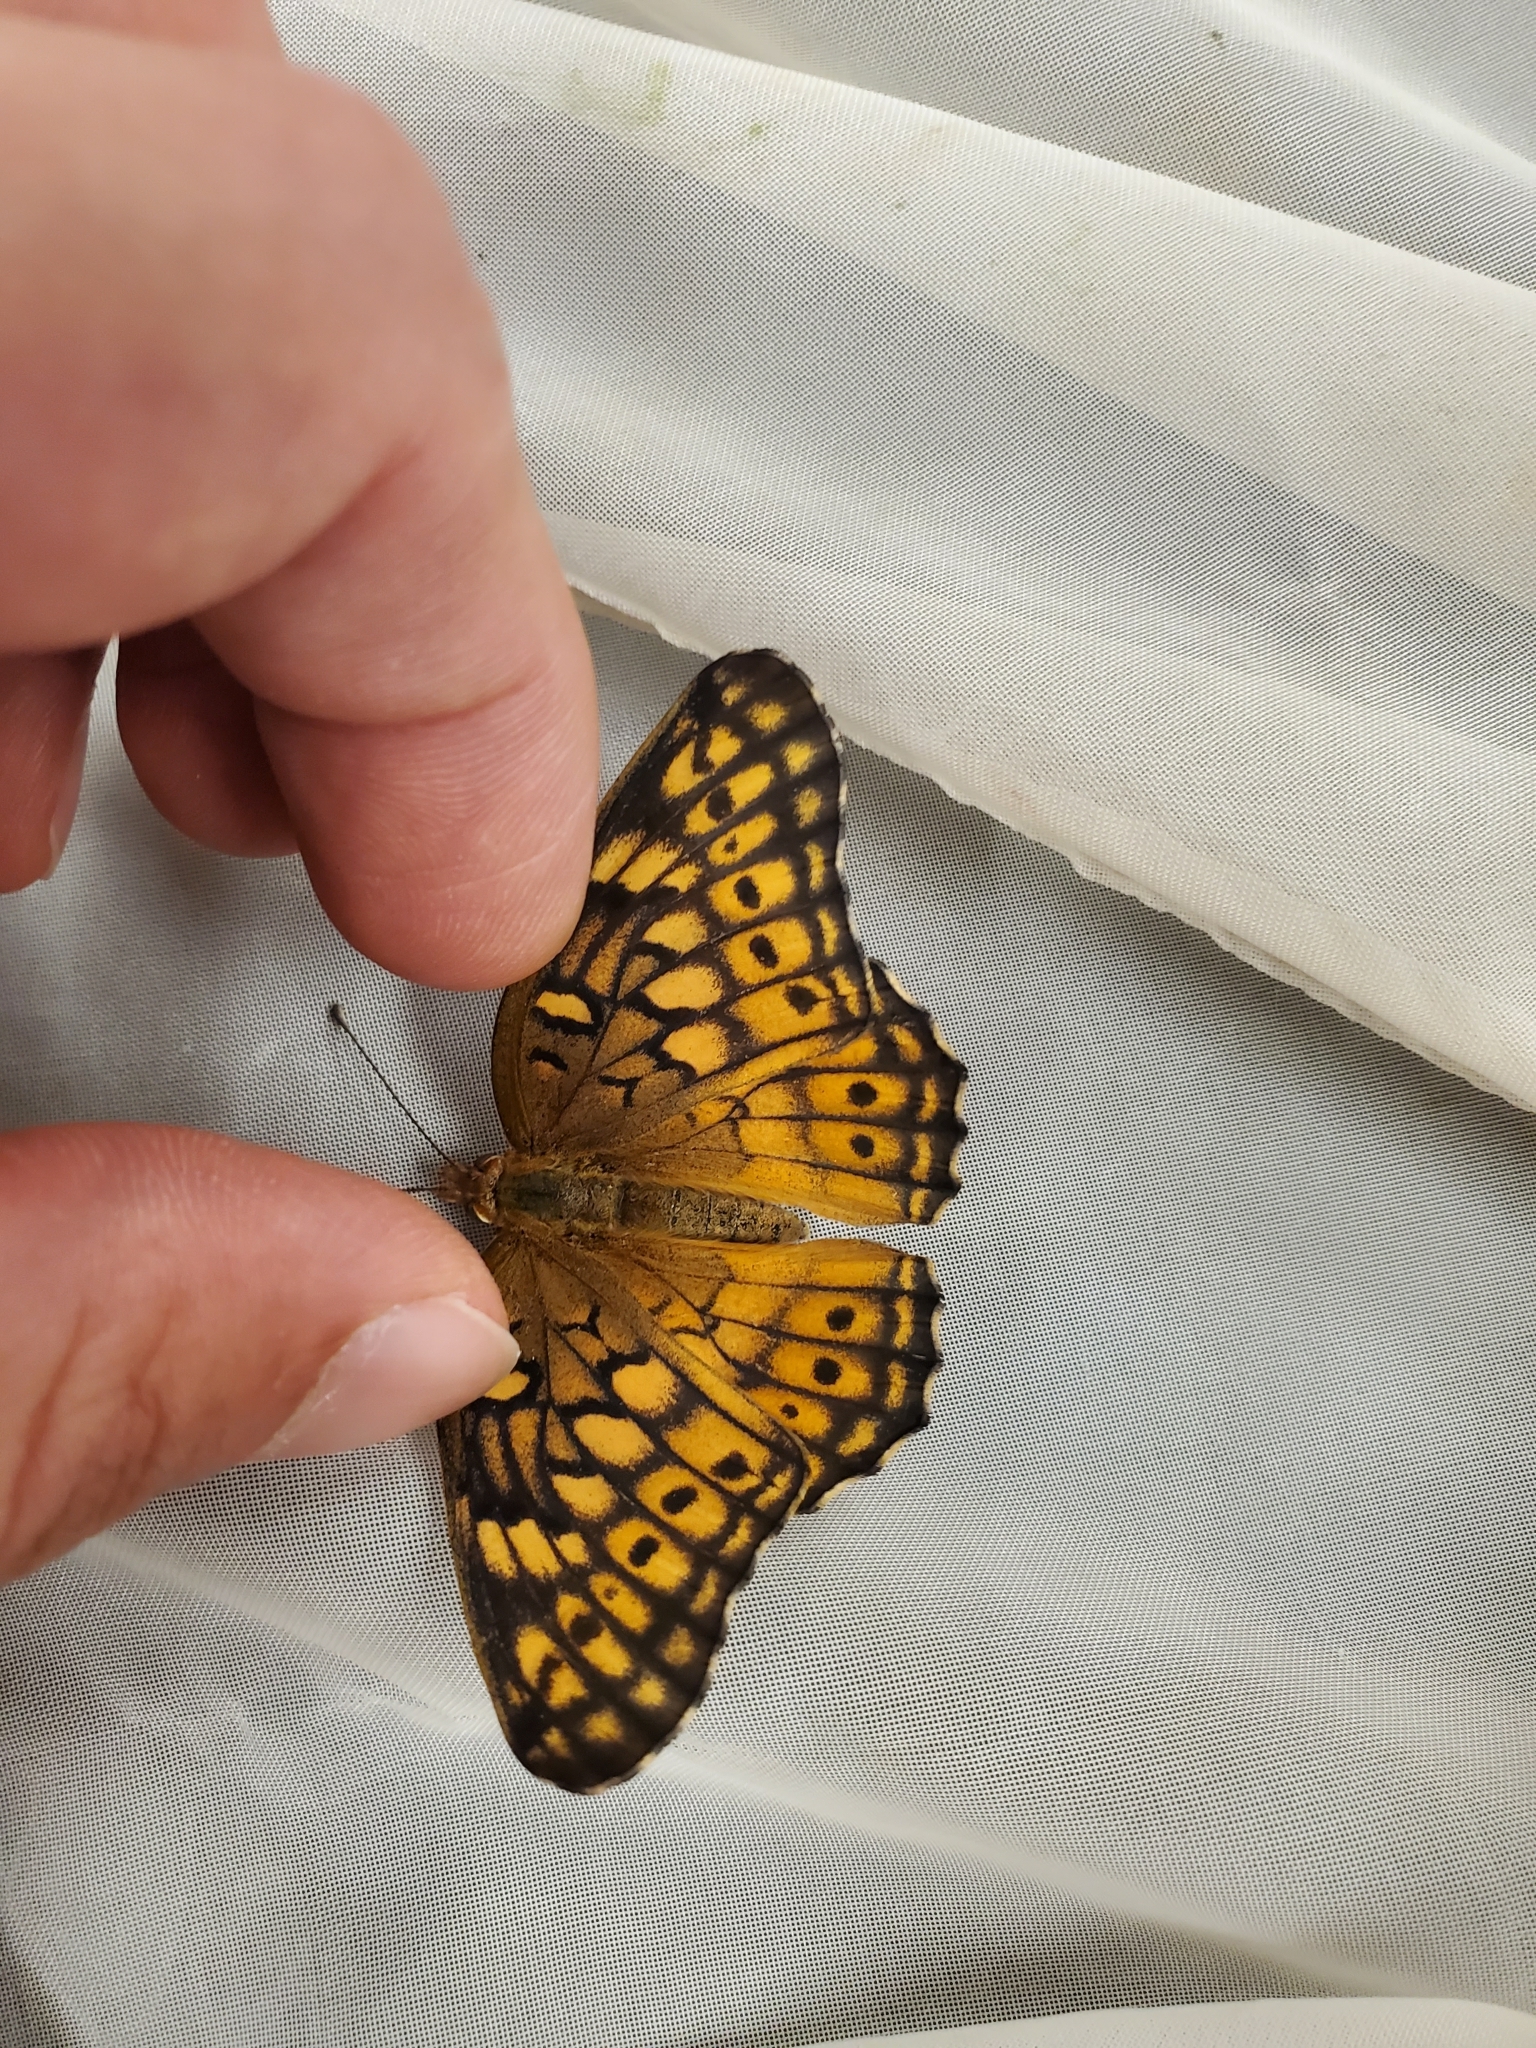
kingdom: Animalia
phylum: Arthropoda
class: Insecta
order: Lepidoptera
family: Nymphalidae
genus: Euptoieta
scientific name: Euptoieta claudia
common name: Variegated fritillary
